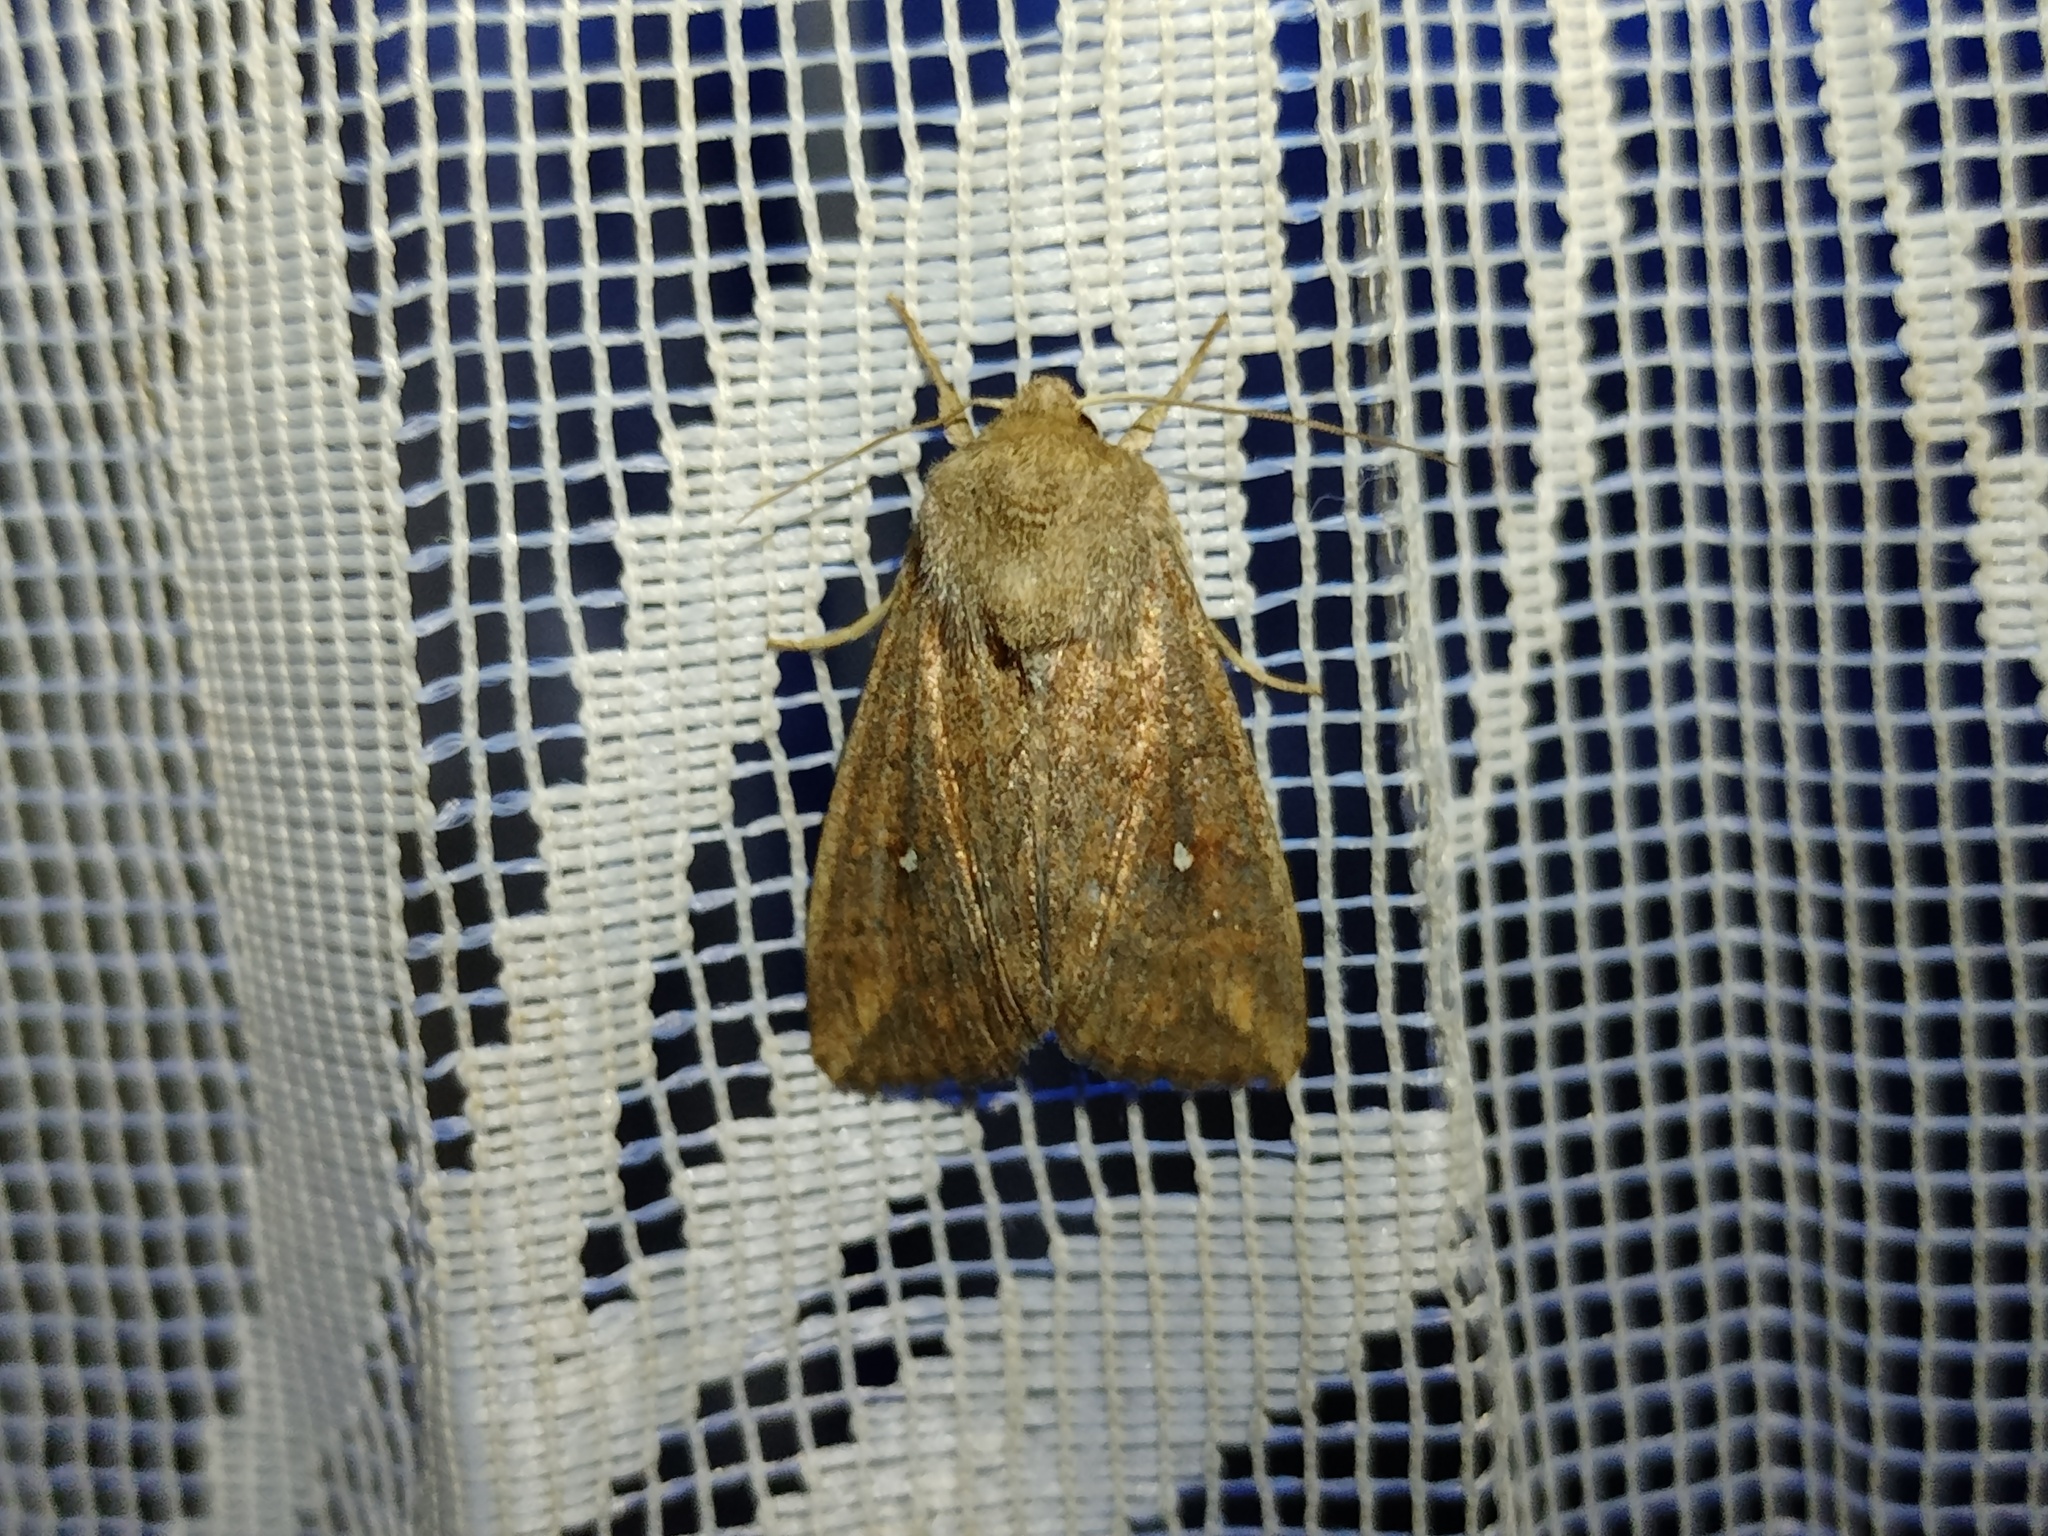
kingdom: Animalia
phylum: Arthropoda
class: Insecta
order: Lepidoptera
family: Noctuidae
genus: Mythimna
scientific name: Mythimna albipuncta
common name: White-point
